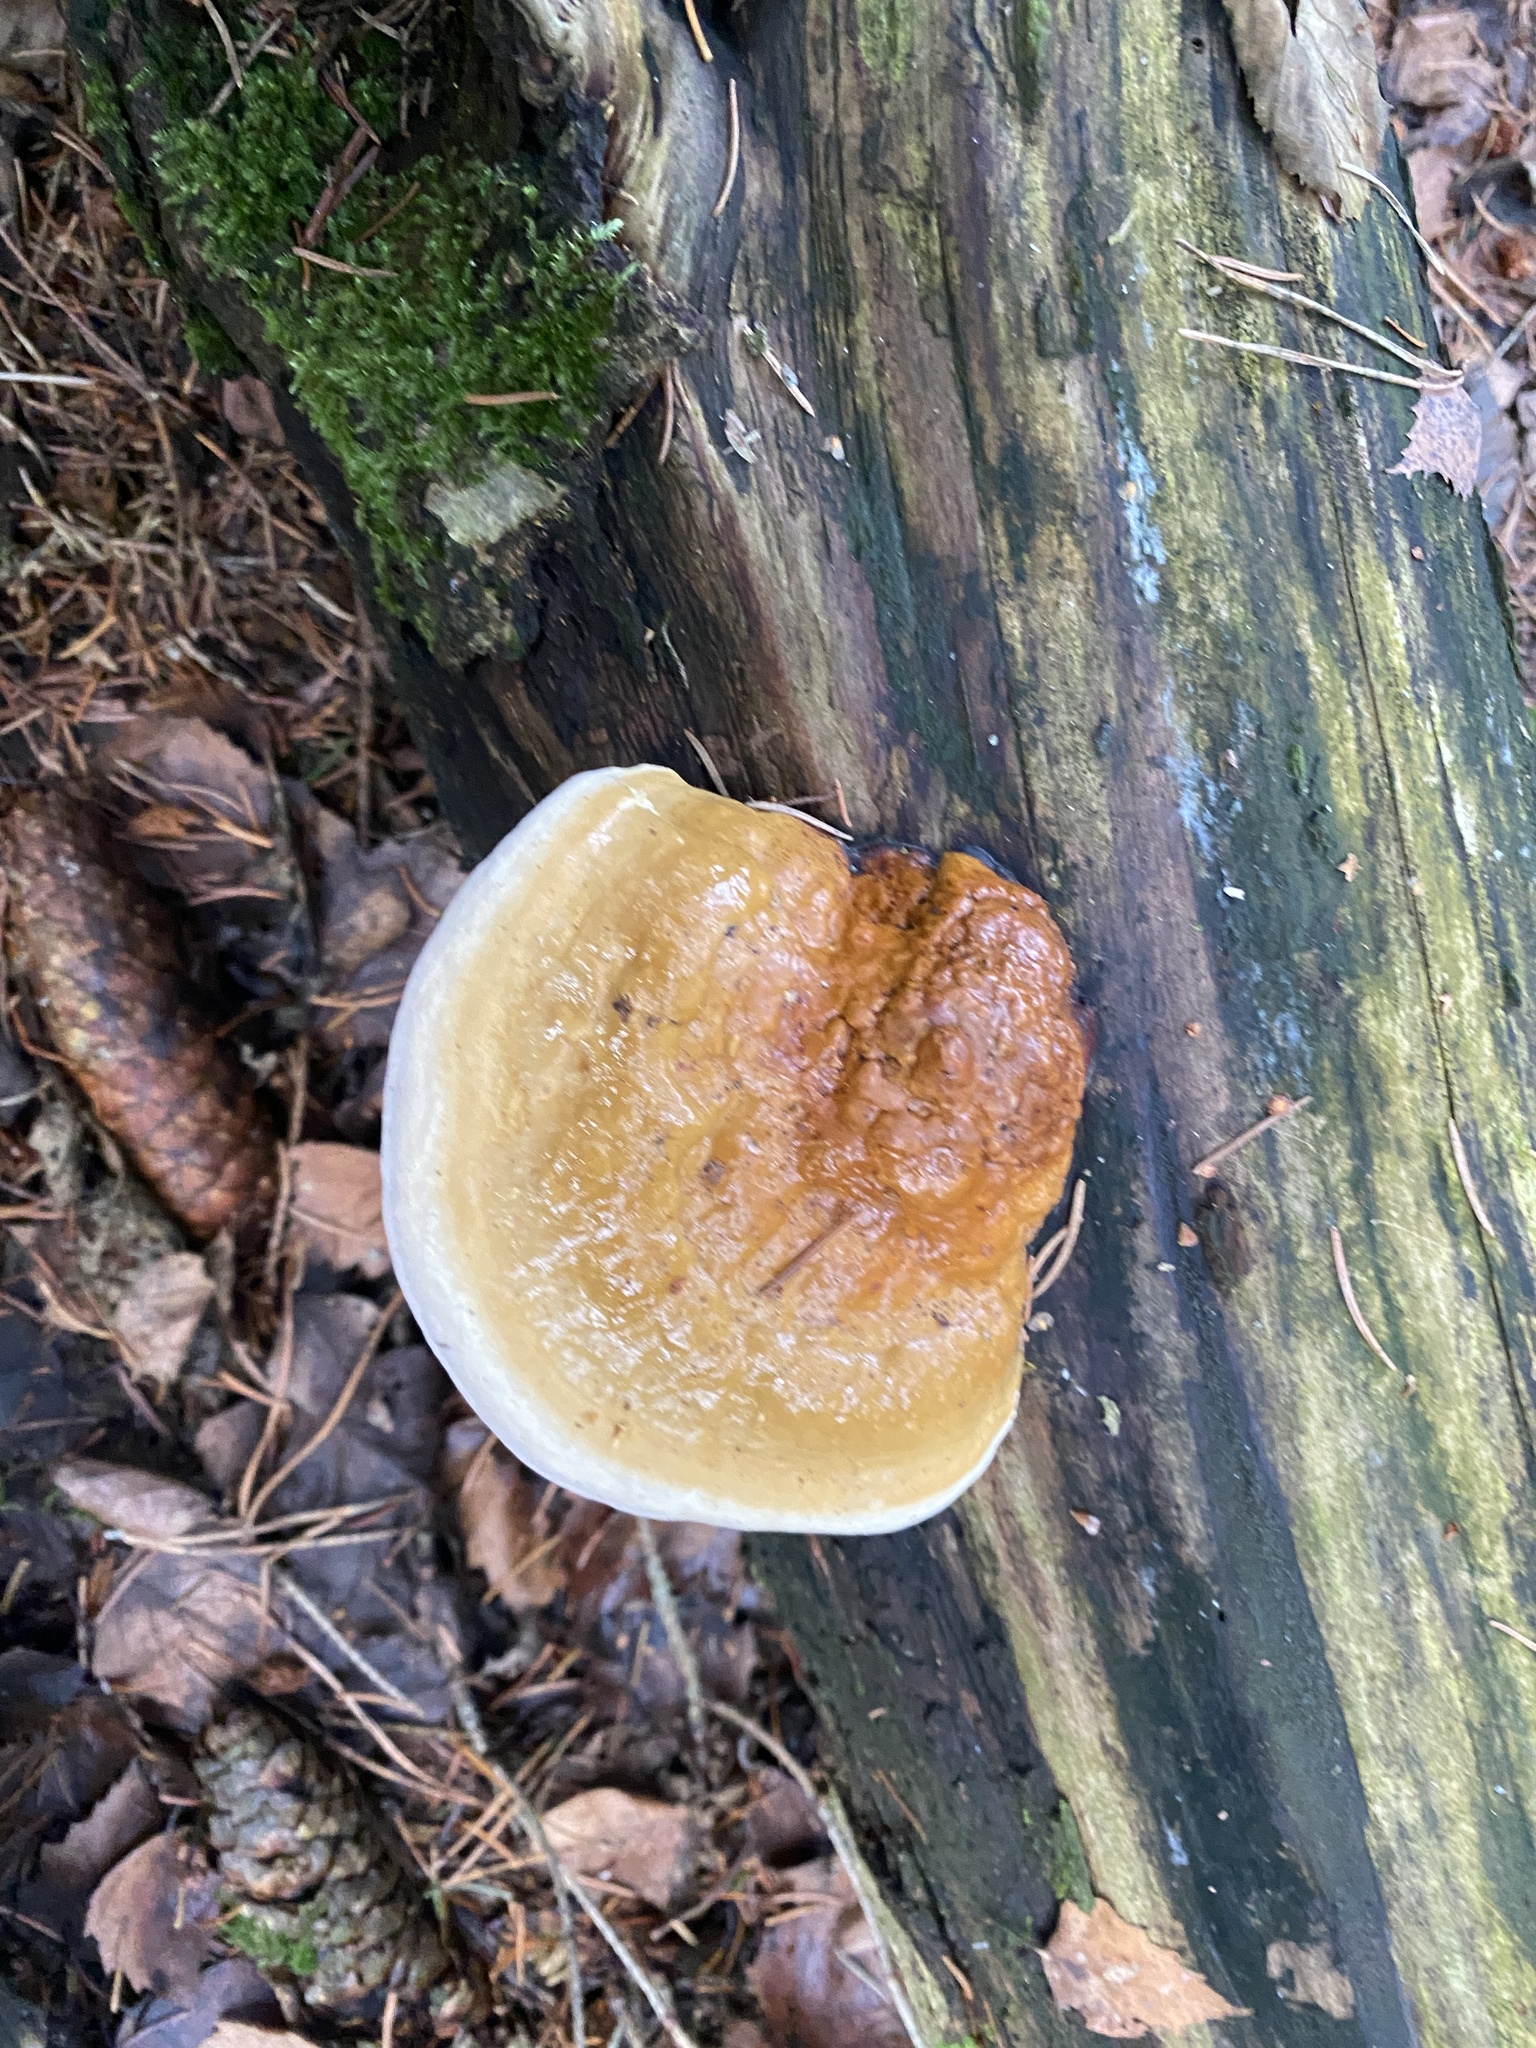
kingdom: Fungi
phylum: Basidiomycota
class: Agaricomycetes
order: Polyporales
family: Fomitopsidaceae
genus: Fomitopsis
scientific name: Fomitopsis pinicola
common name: Red-belted bracket
